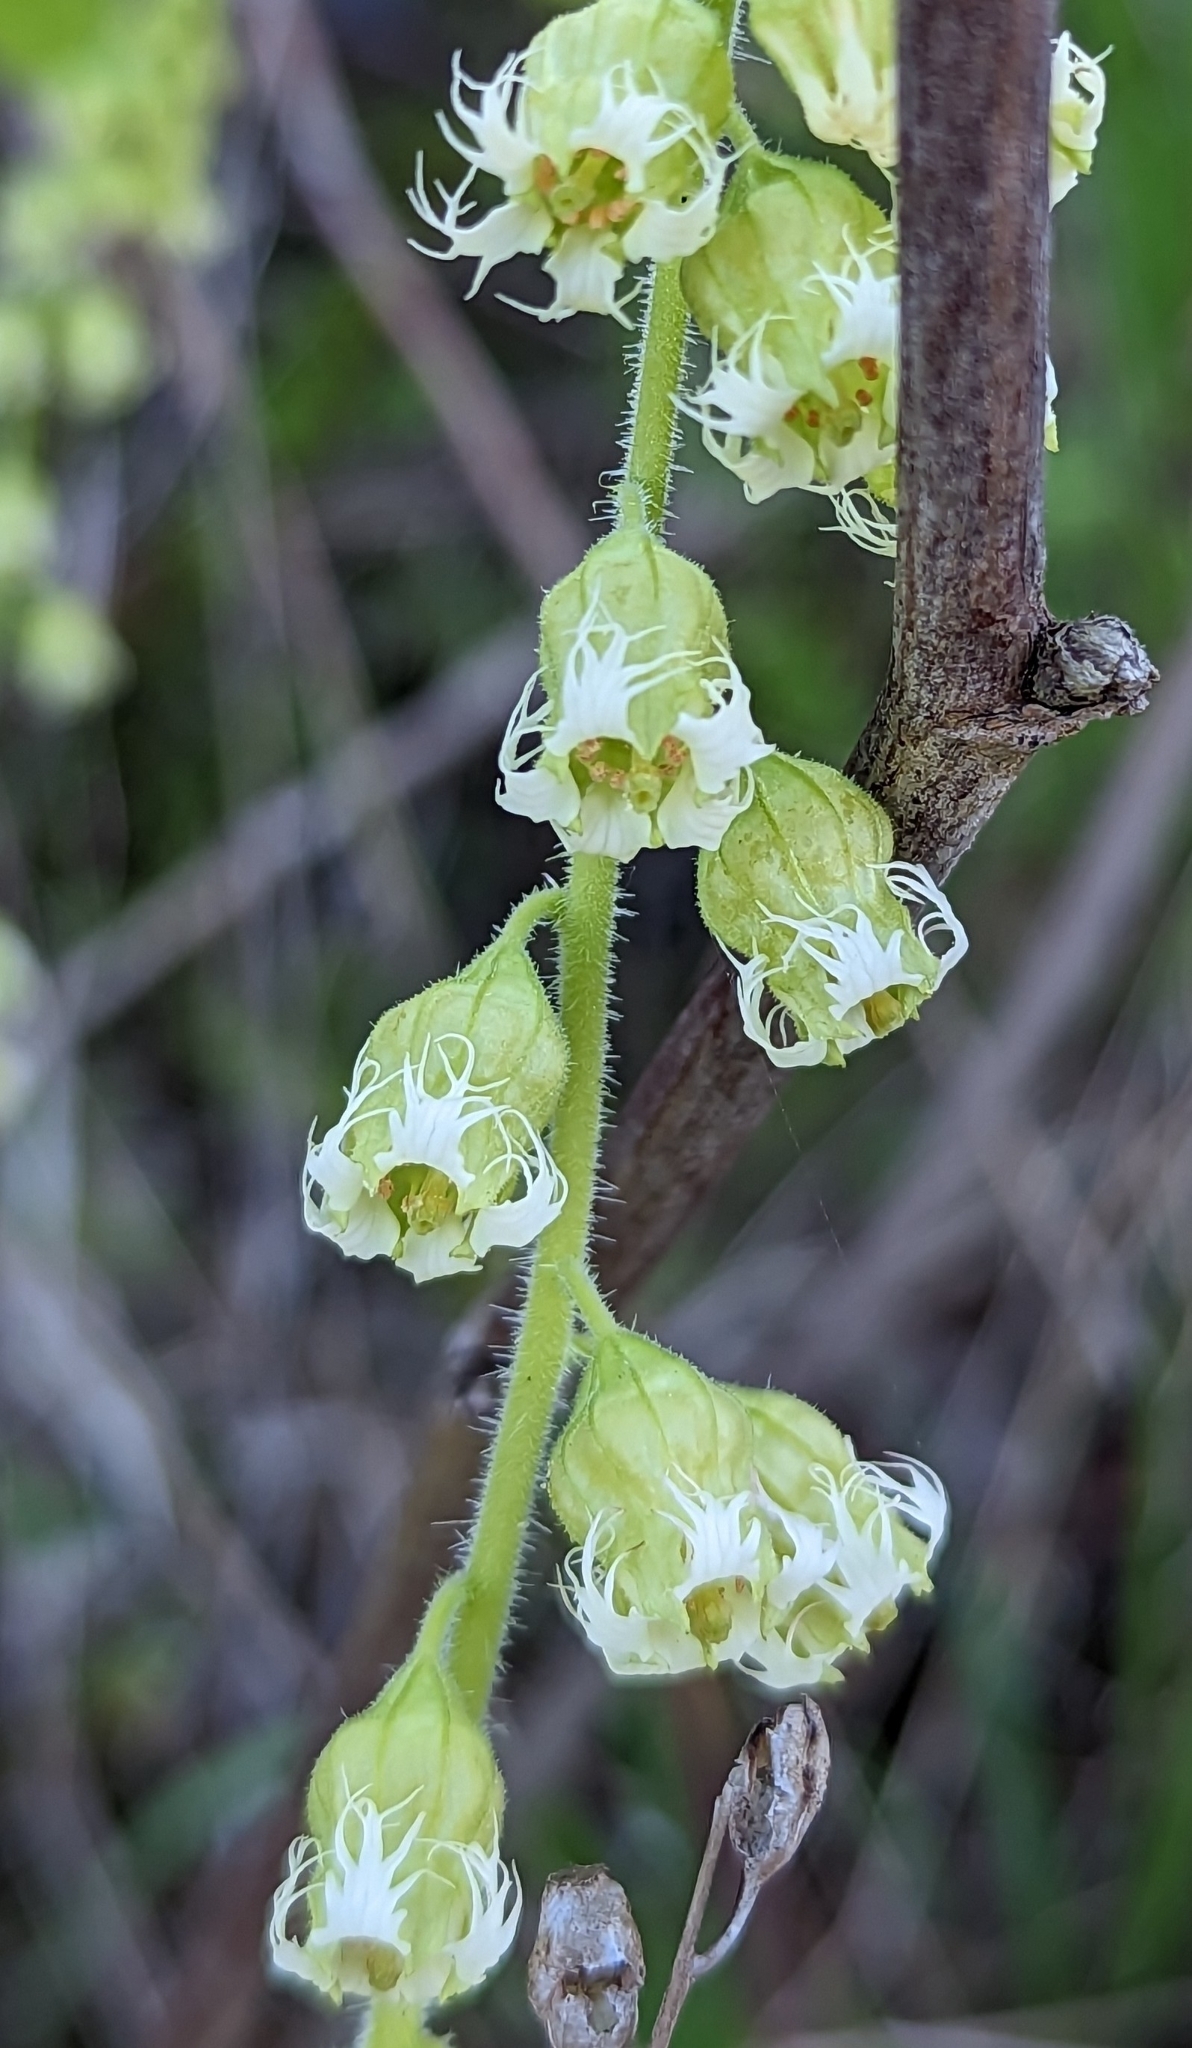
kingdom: Plantae
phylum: Tracheophyta
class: Magnoliopsida
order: Saxifragales
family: Saxifragaceae
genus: Tellima
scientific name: Tellima grandiflora
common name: Fringecups
